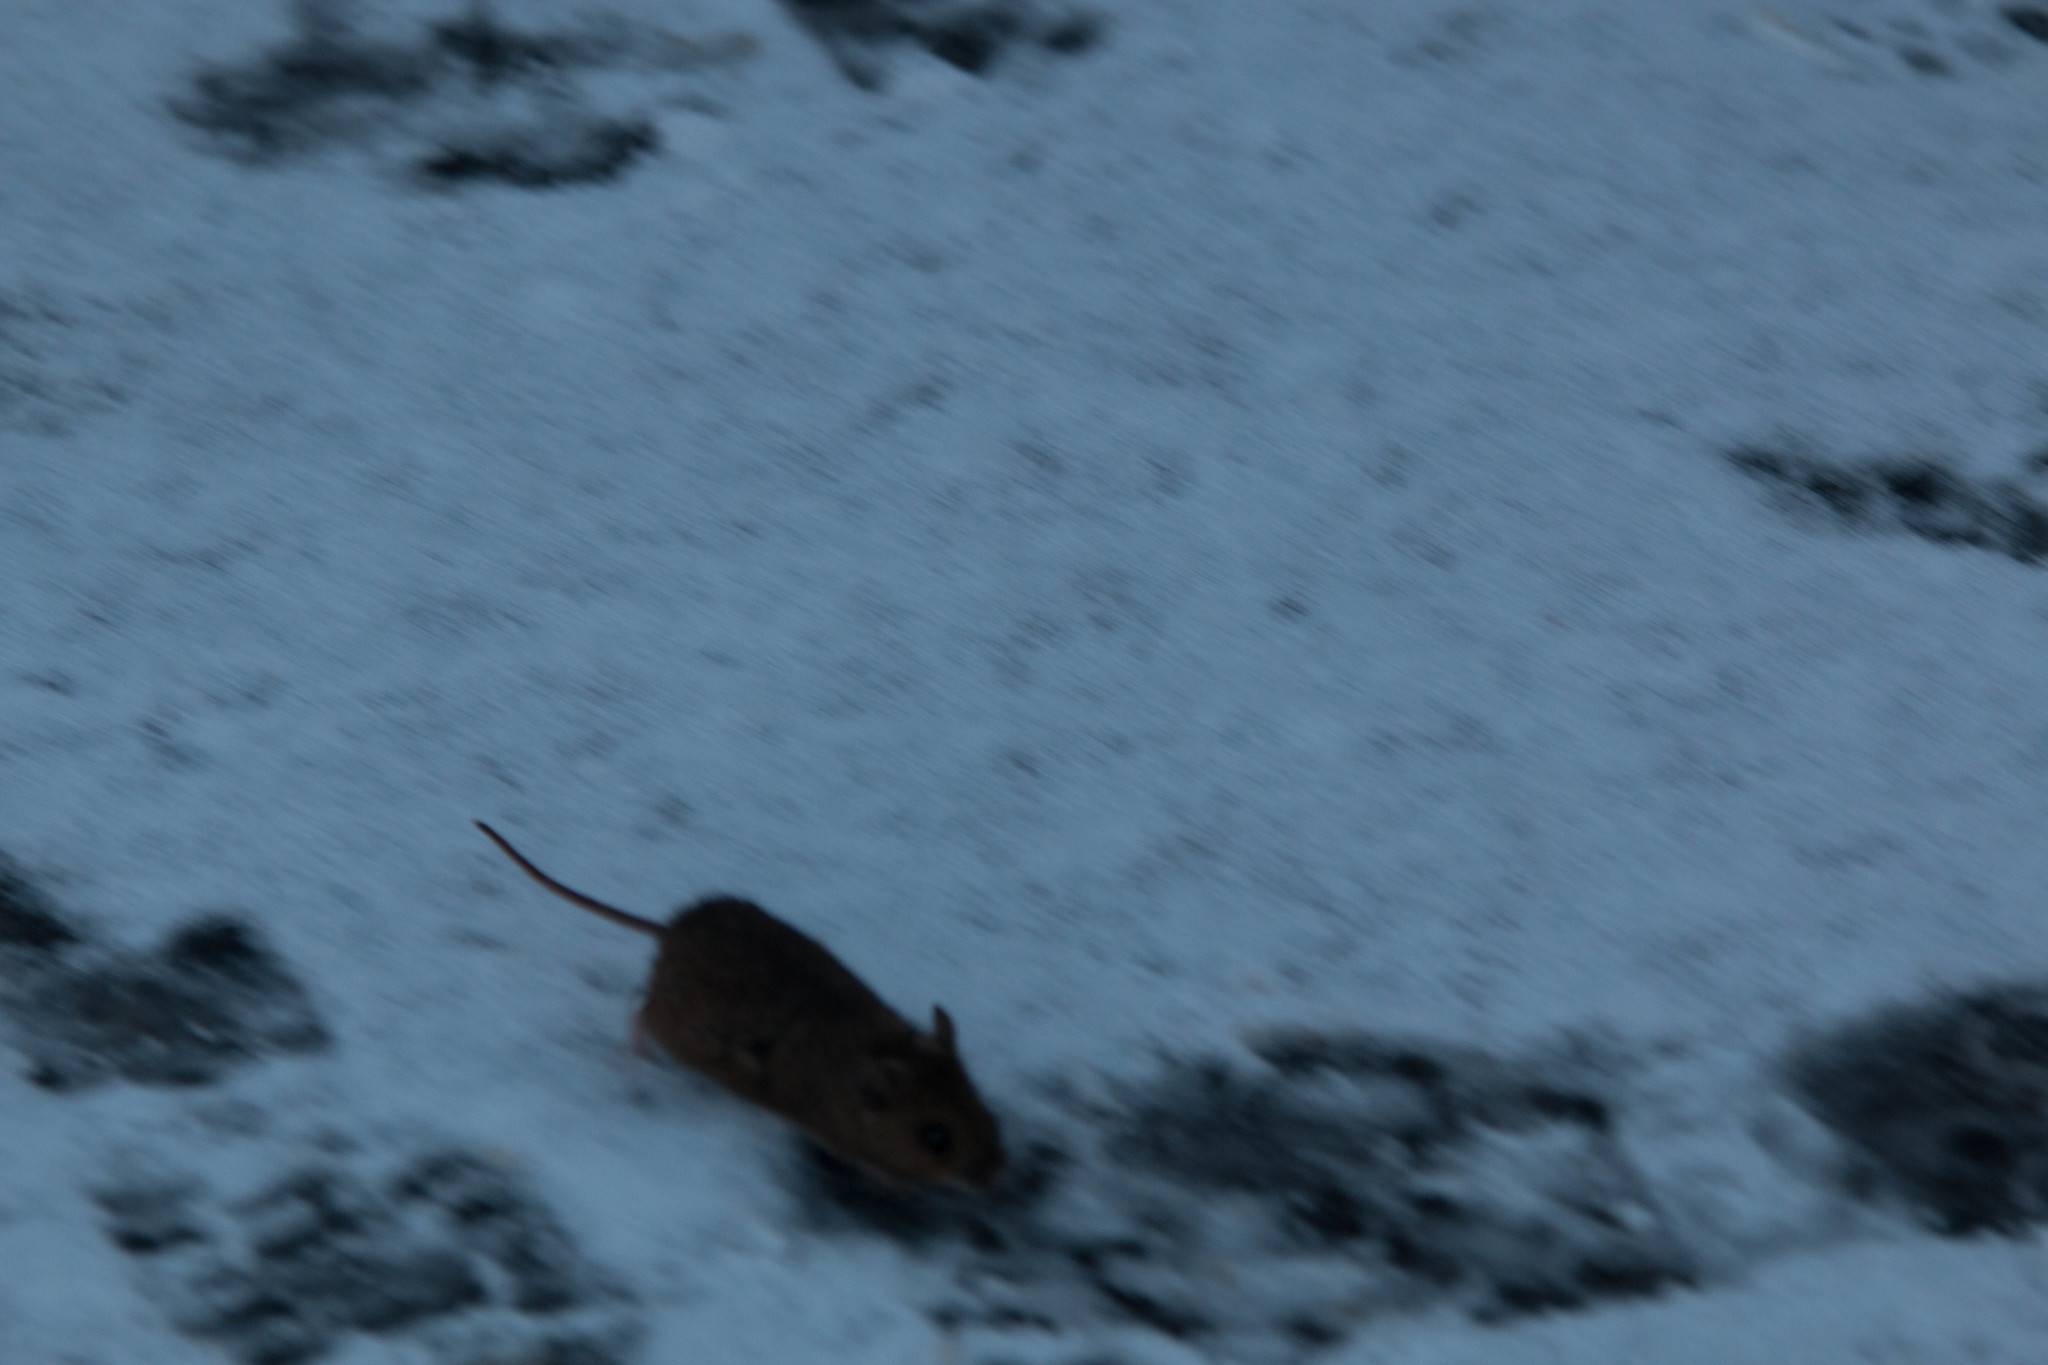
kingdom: Animalia
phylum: Chordata
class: Mammalia
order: Rodentia
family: Muridae
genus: Apodemus
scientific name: Apodemus sylvaticus
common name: Wood mouse
